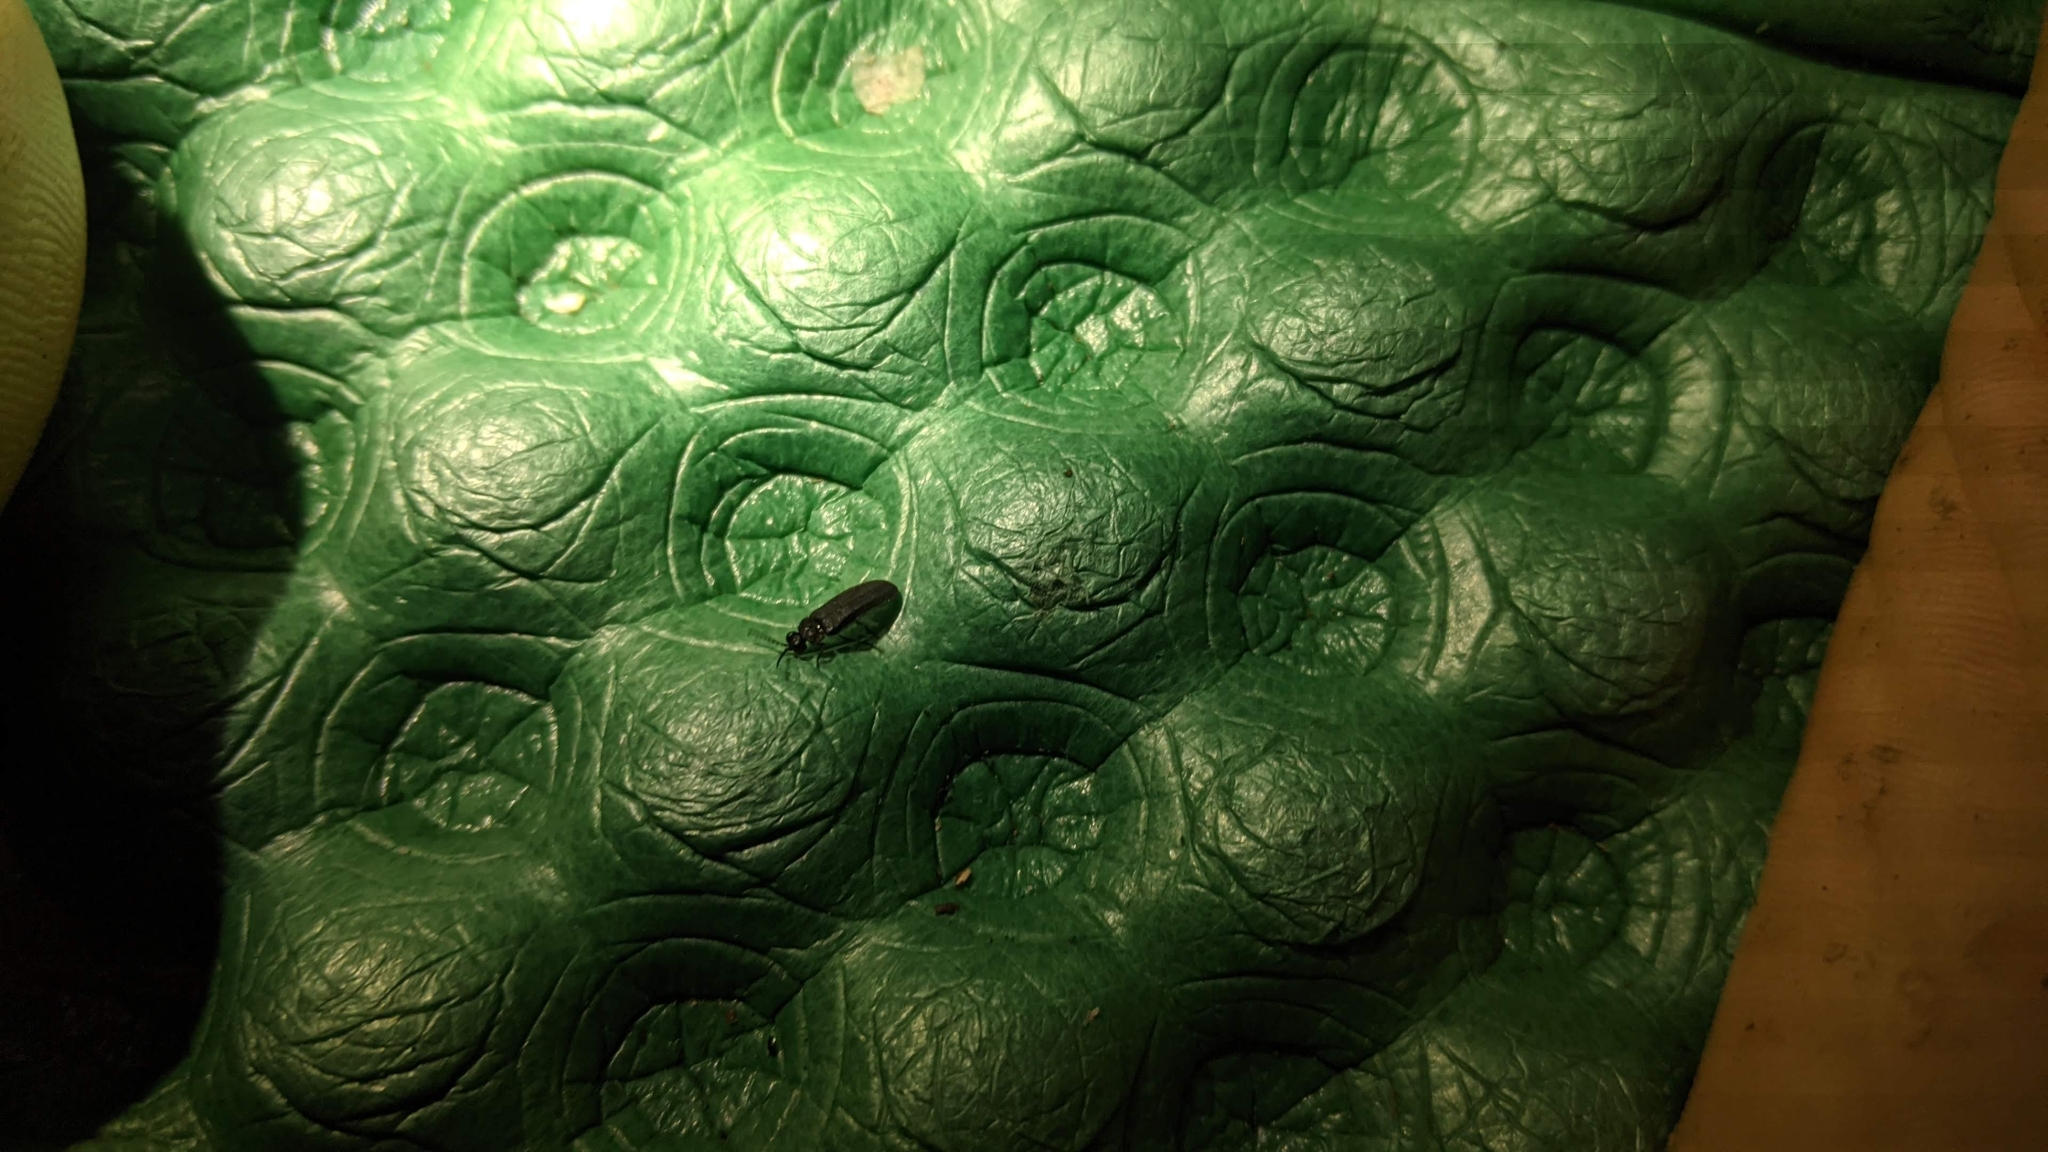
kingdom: Animalia
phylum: Arthropoda
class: Insecta
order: Coleoptera
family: Lampyridae
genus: Curtos
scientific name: Curtos obscuricolor
